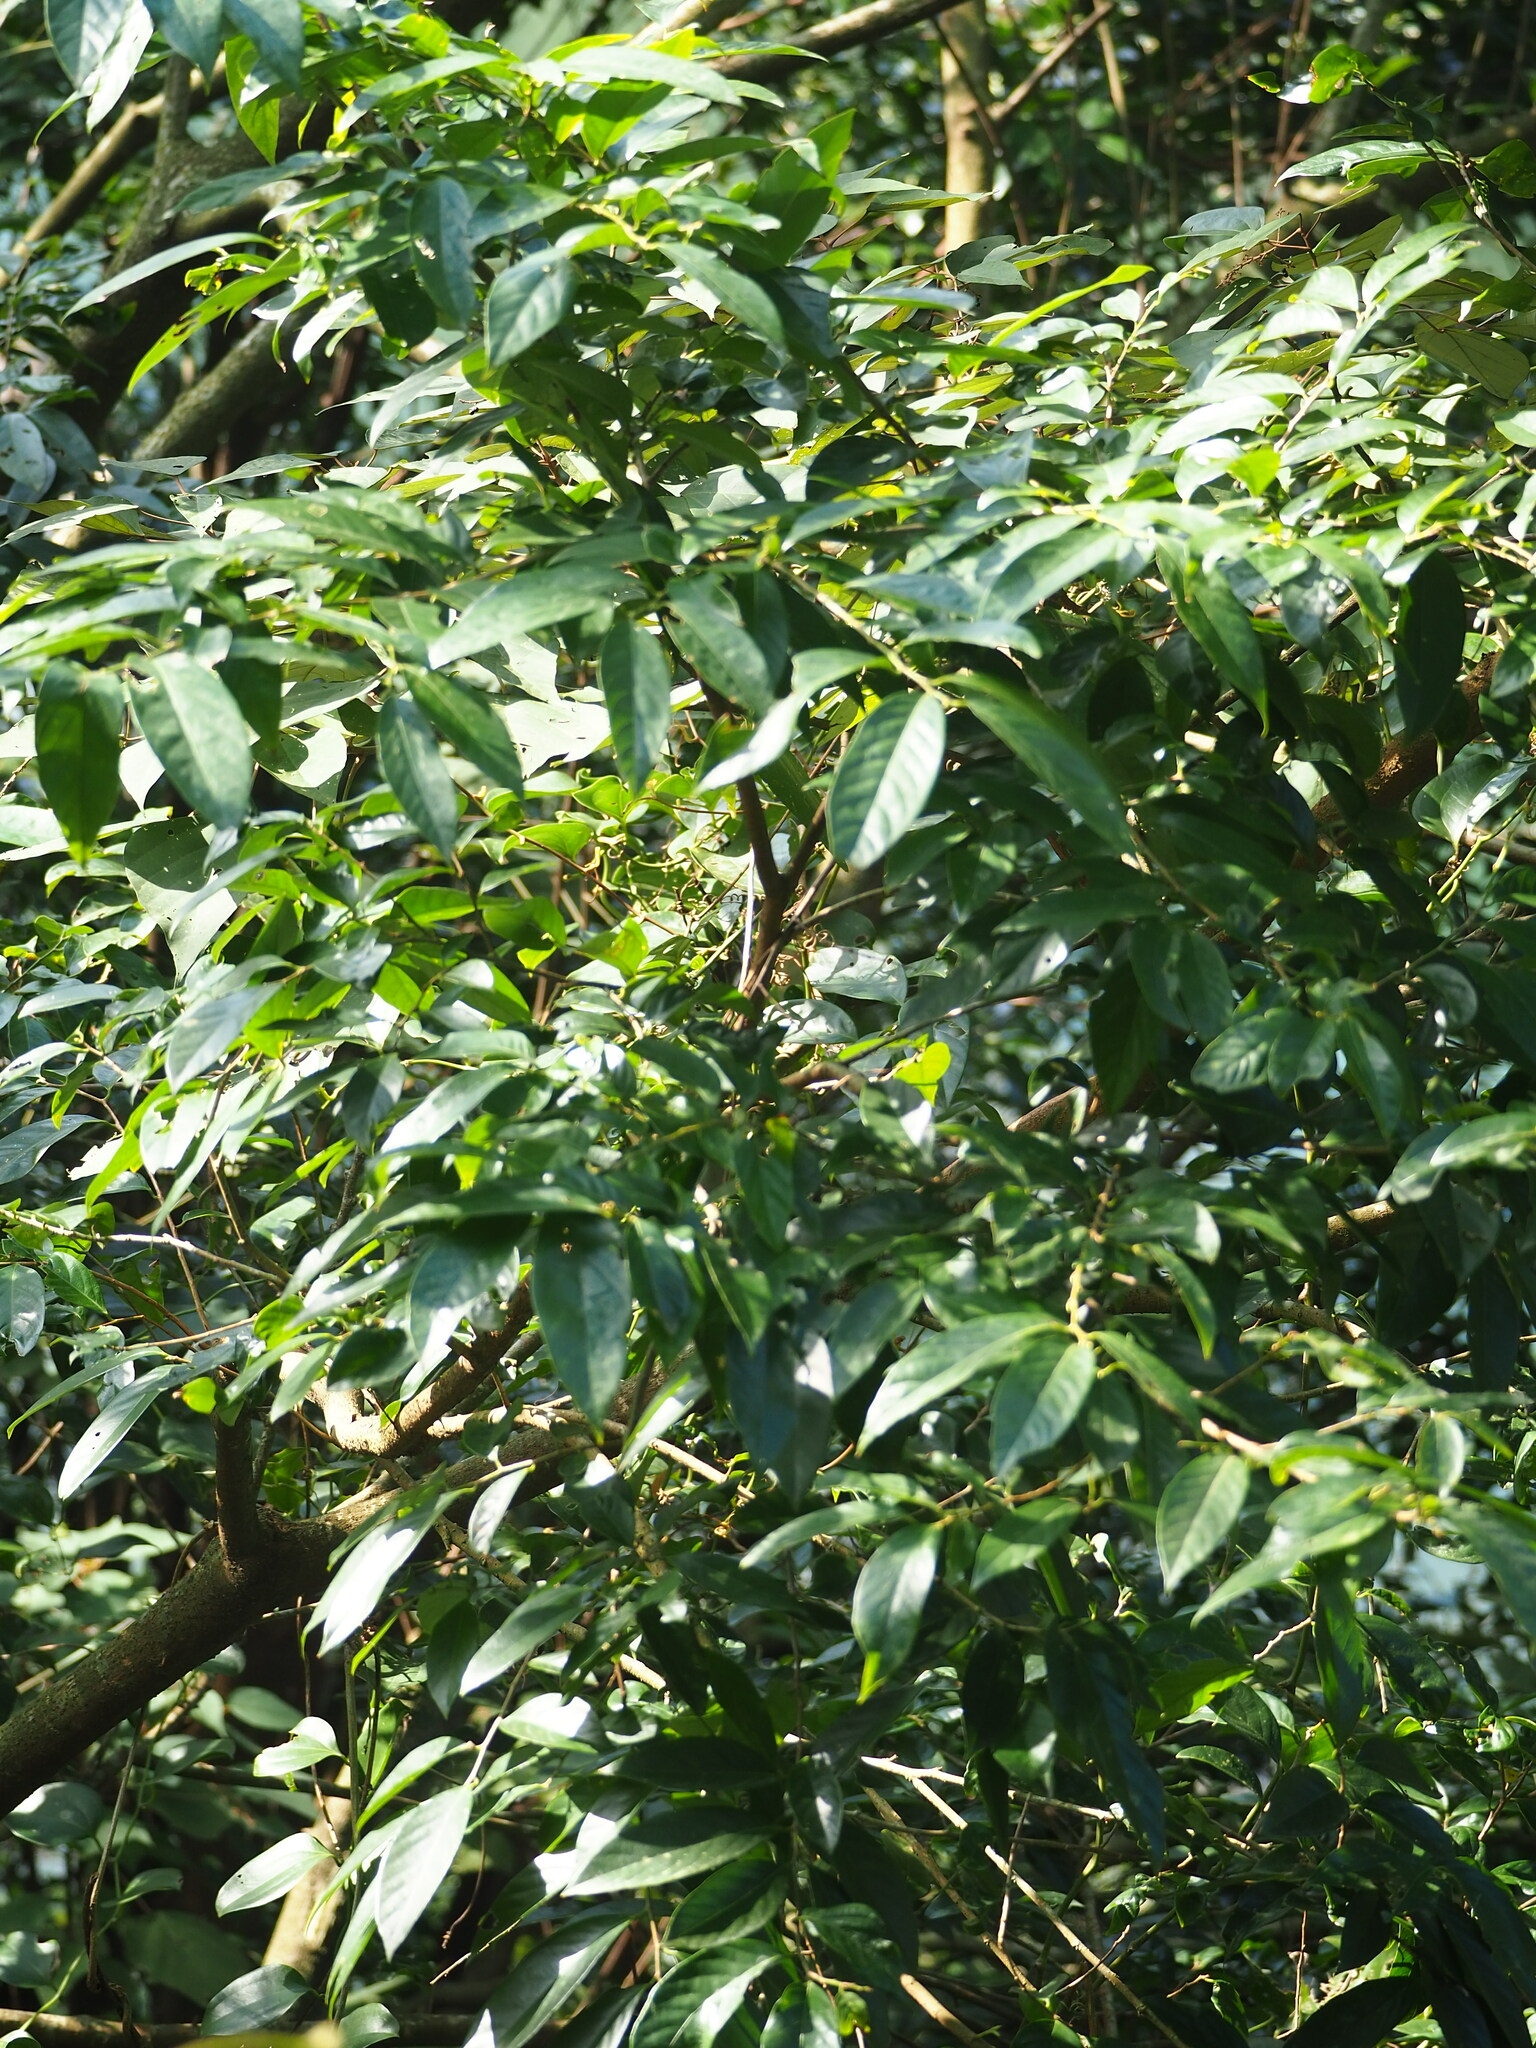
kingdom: Plantae
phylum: Tracheophyta
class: Magnoliopsida
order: Malpighiales
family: Phyllanthaceae
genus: Bridelia
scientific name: Bridelia balansae
